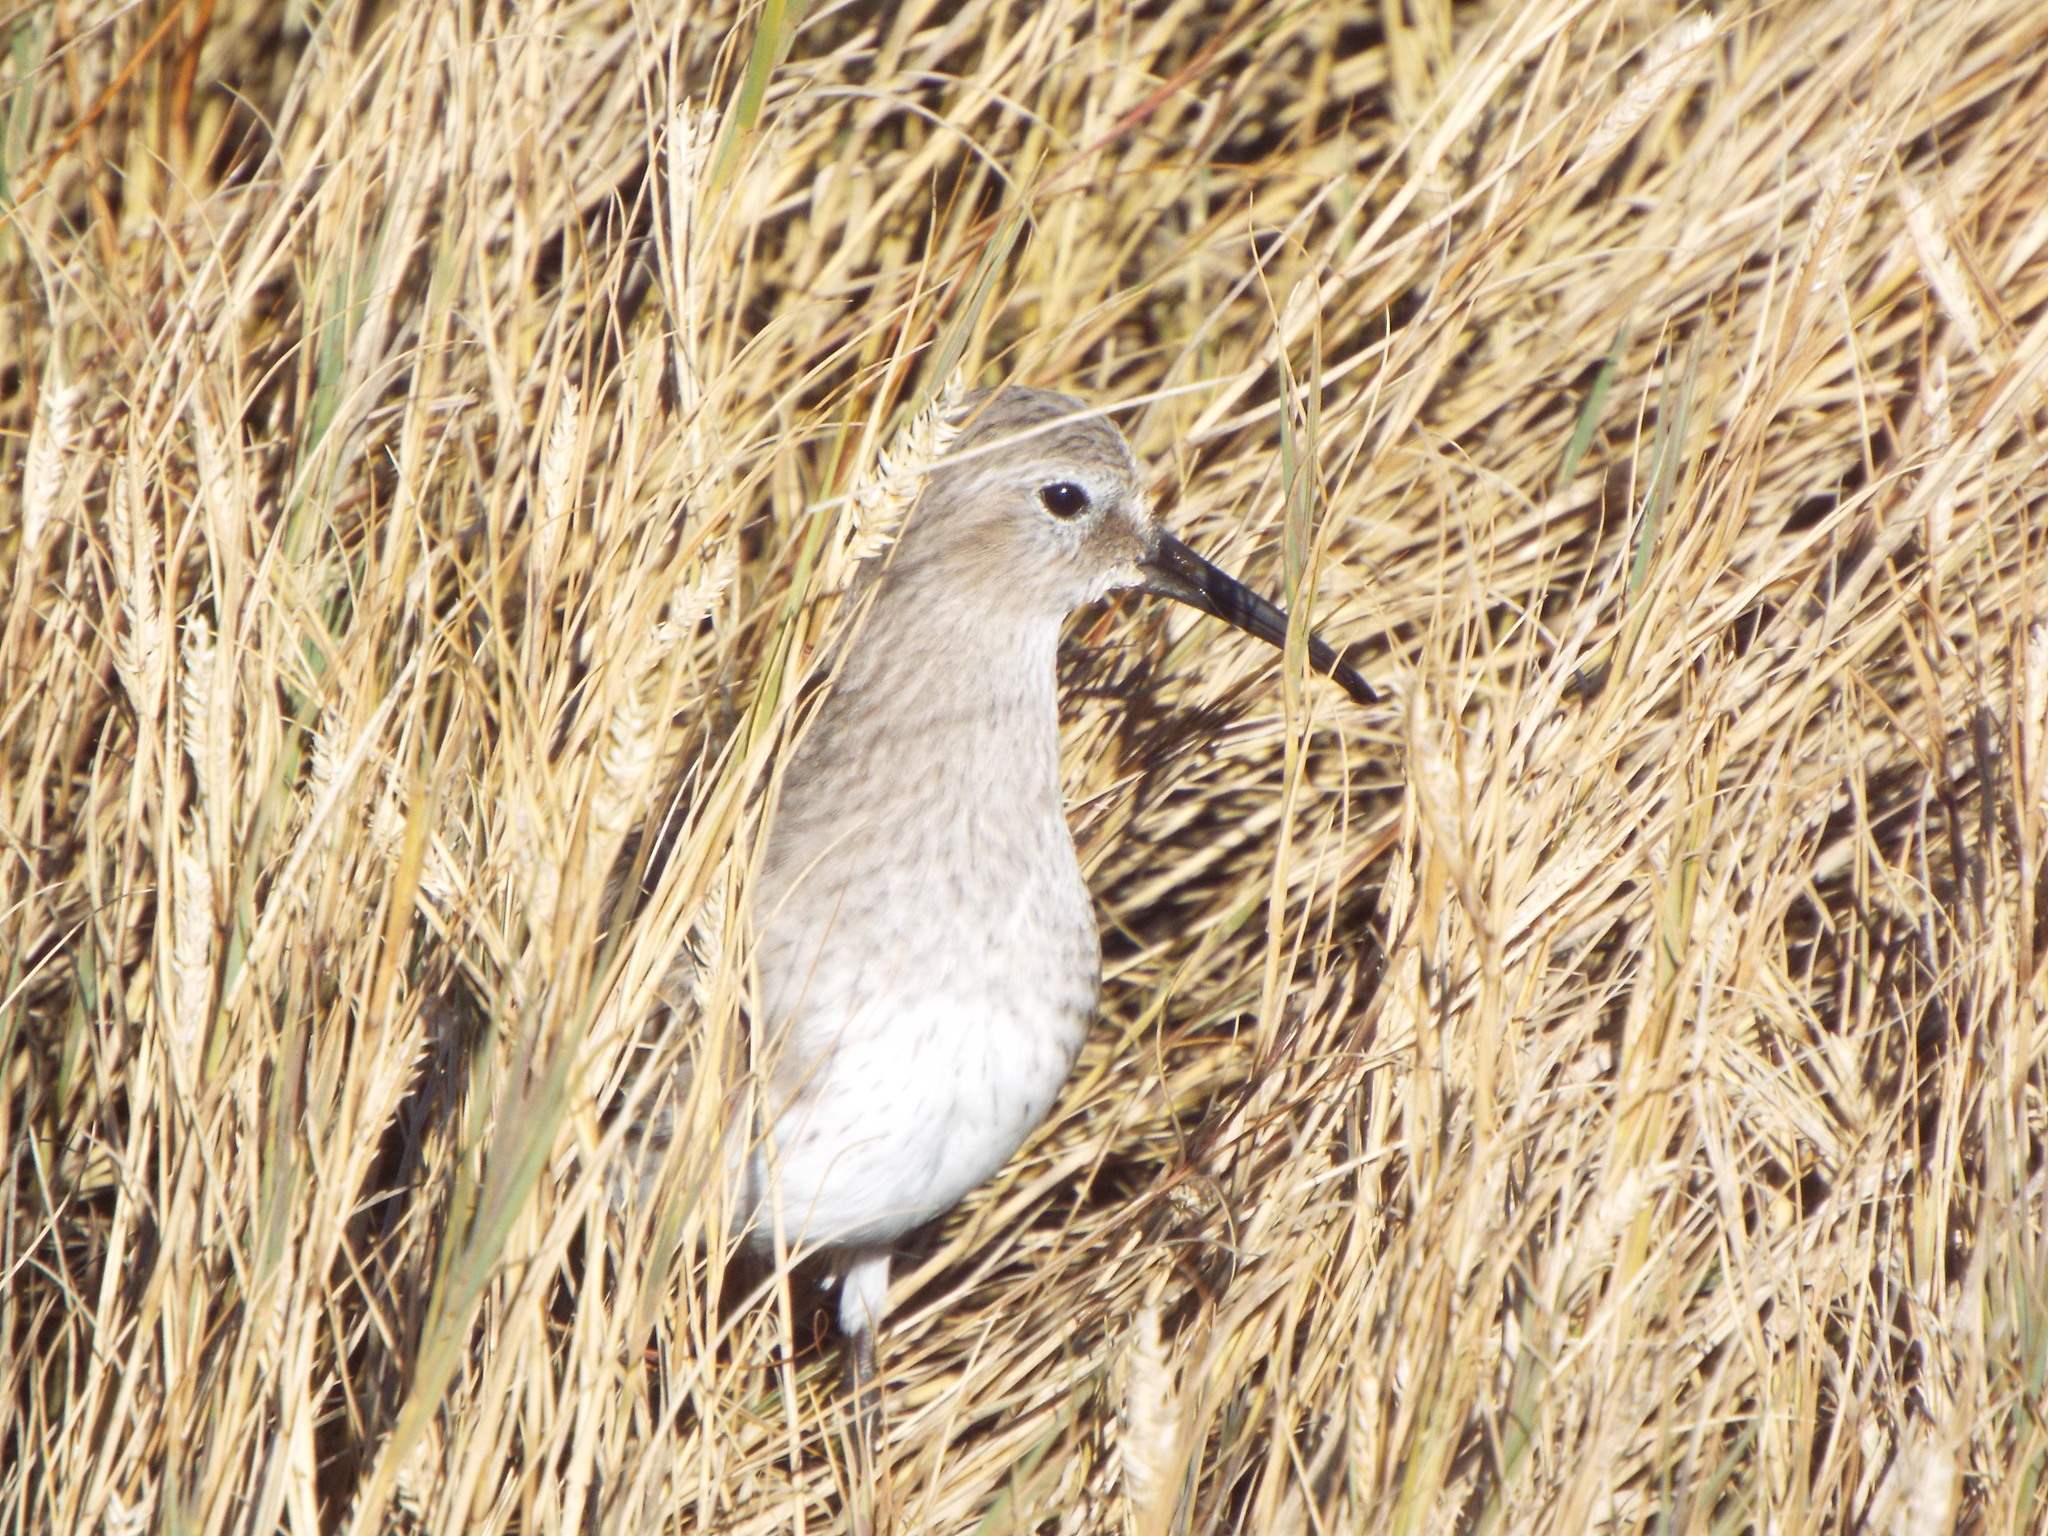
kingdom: Animalia
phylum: Chordata
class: Aves
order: Charadriiformes
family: Scolopacidae
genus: Calidris
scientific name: Calidris alpina
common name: Dunlin
